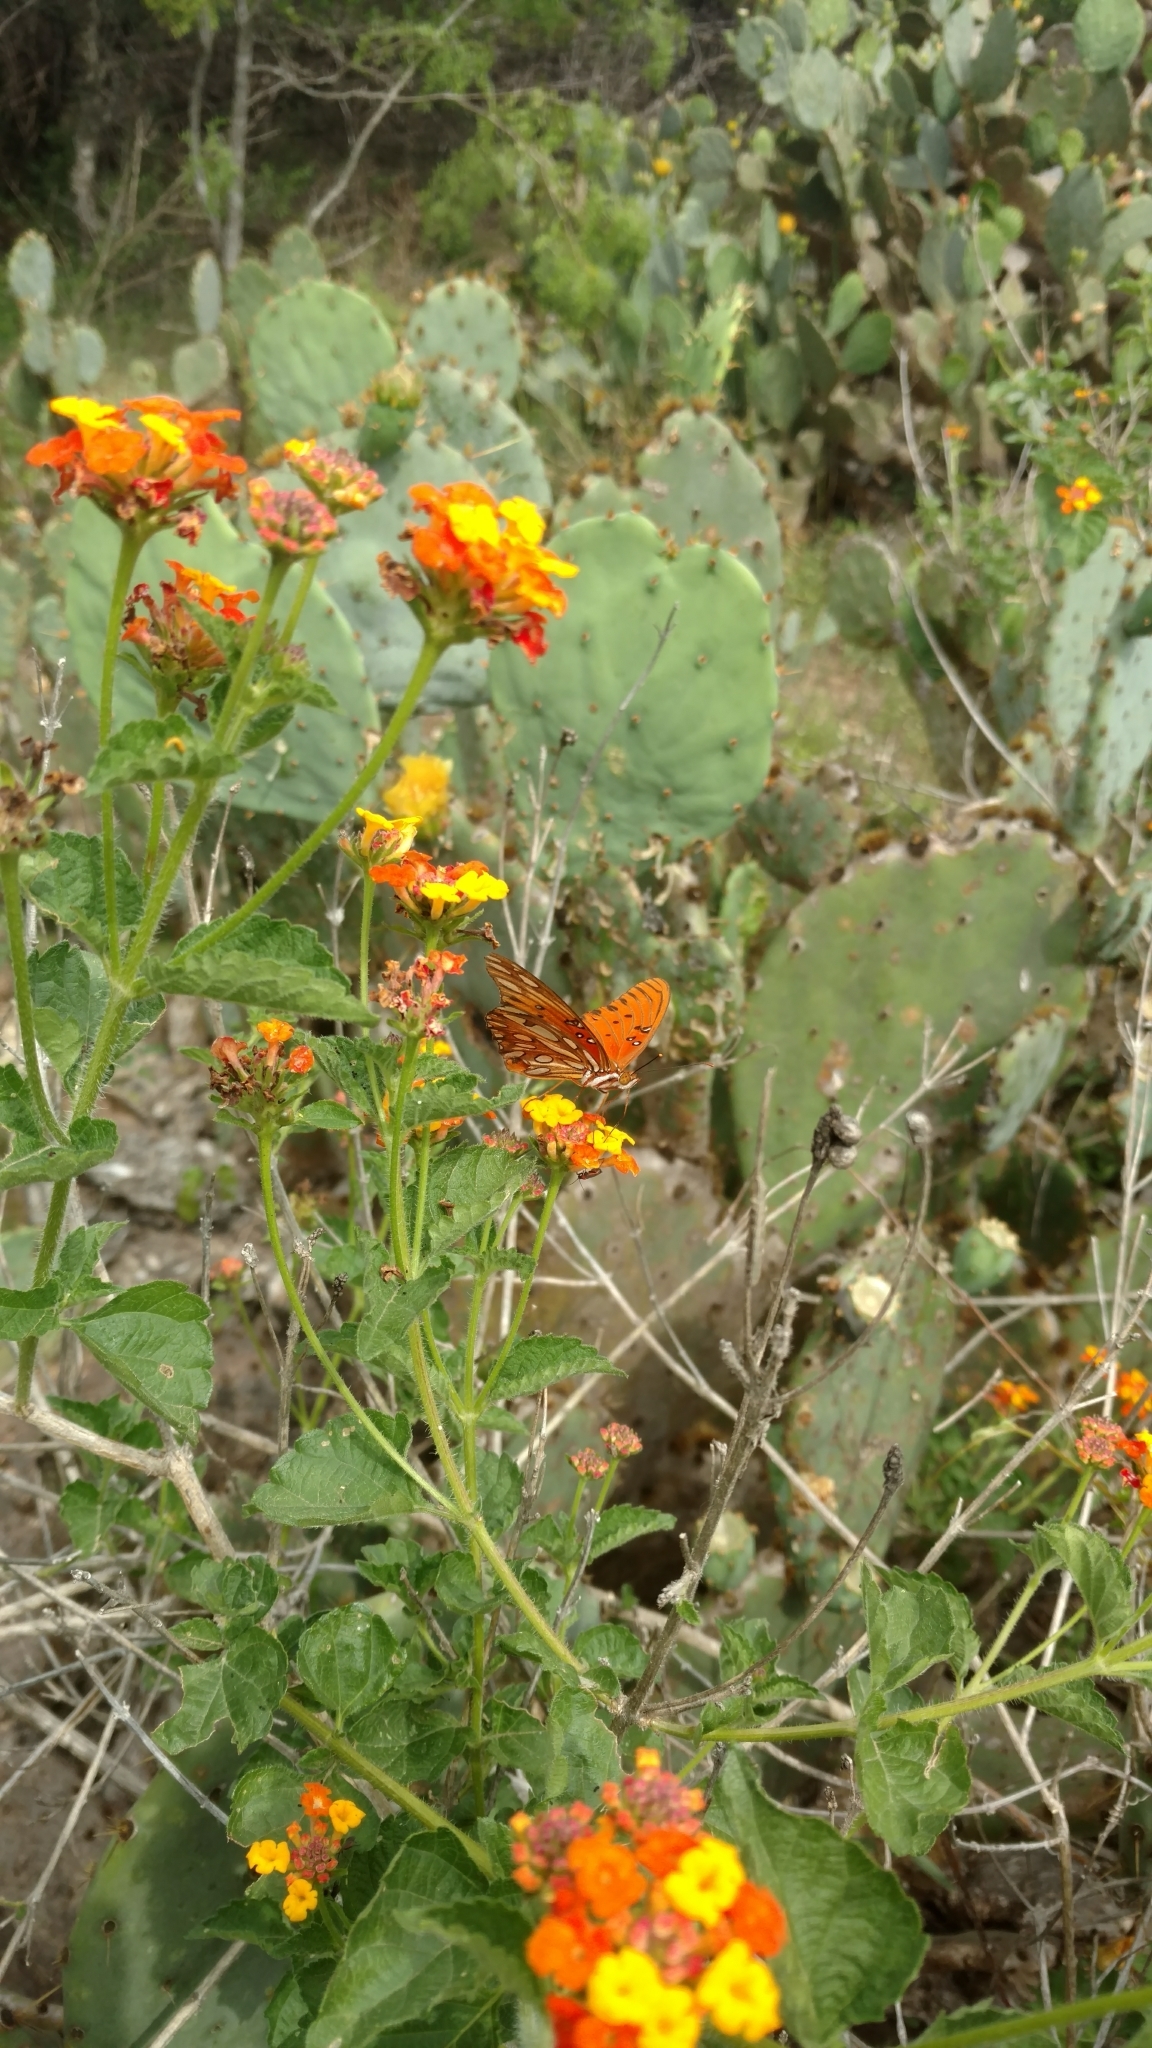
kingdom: Animalia
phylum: Arthropoda
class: Insecta
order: Lepidoptera
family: Nymphalidae
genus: Dione
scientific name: Dione vanillae
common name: Gulf fritillary
